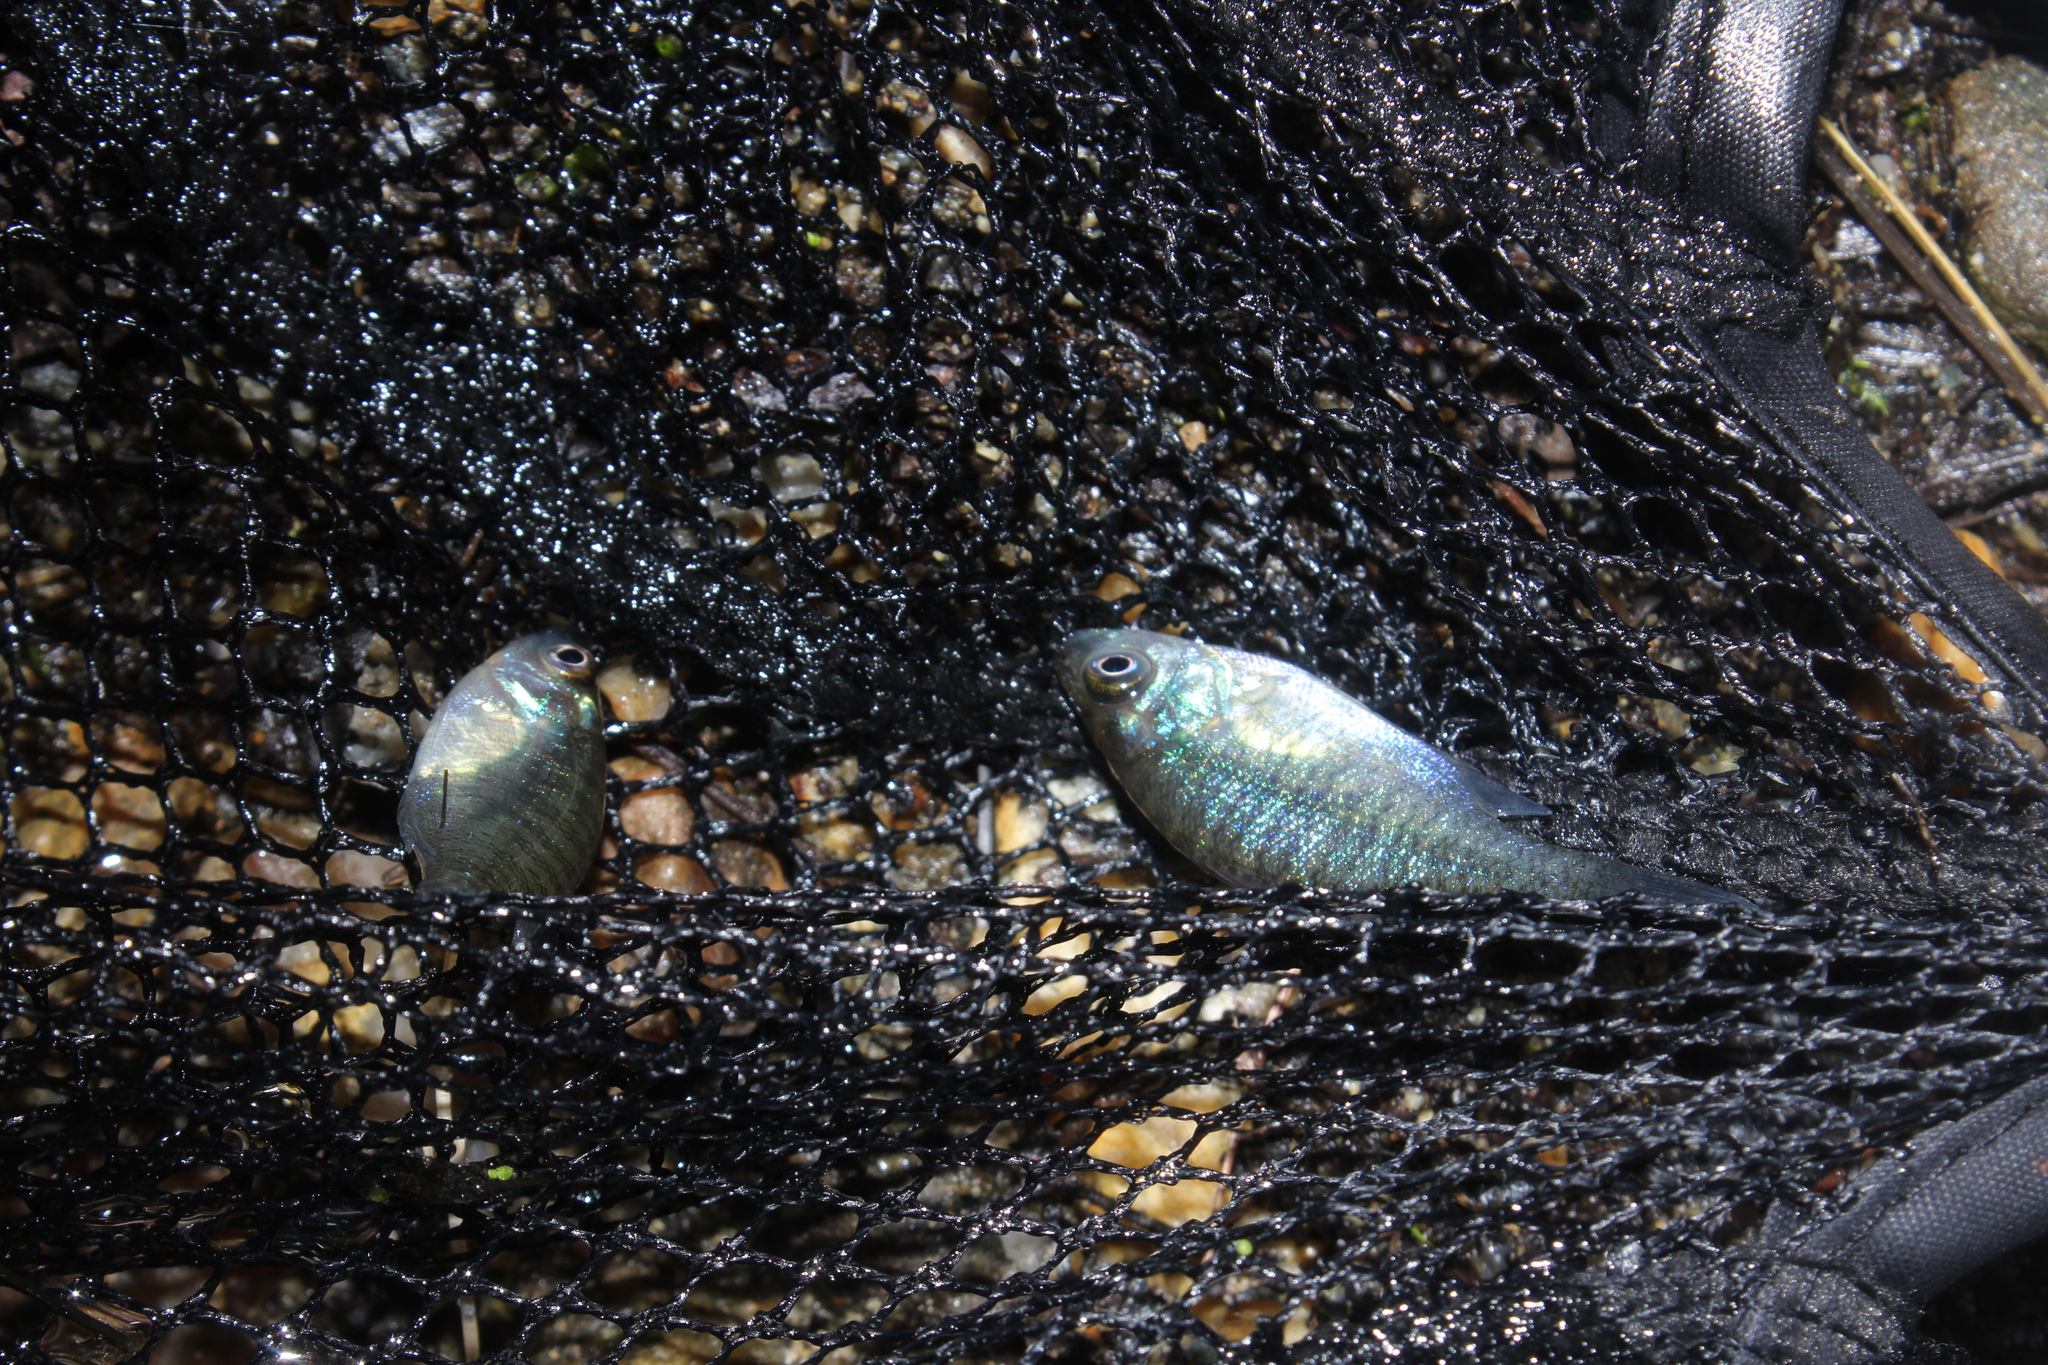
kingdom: Animalia
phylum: Chordata
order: Perciformes
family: Centrarchidae
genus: Lepomis
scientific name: Lepomis macrochirus
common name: Bluegill
